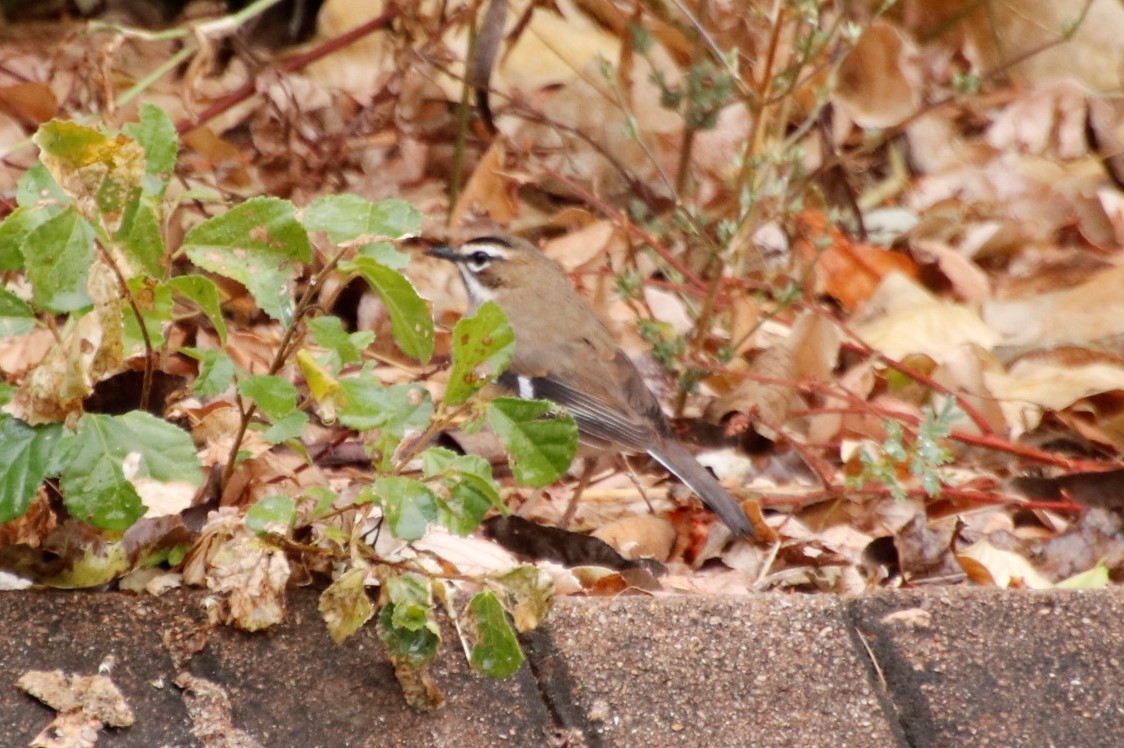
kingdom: Animalia
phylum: Chordata
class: Aves
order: Passeriformes
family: Muscicapidae
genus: Erythropygia
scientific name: Erythropygia quadrivirgata
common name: Bearded scrub robin
